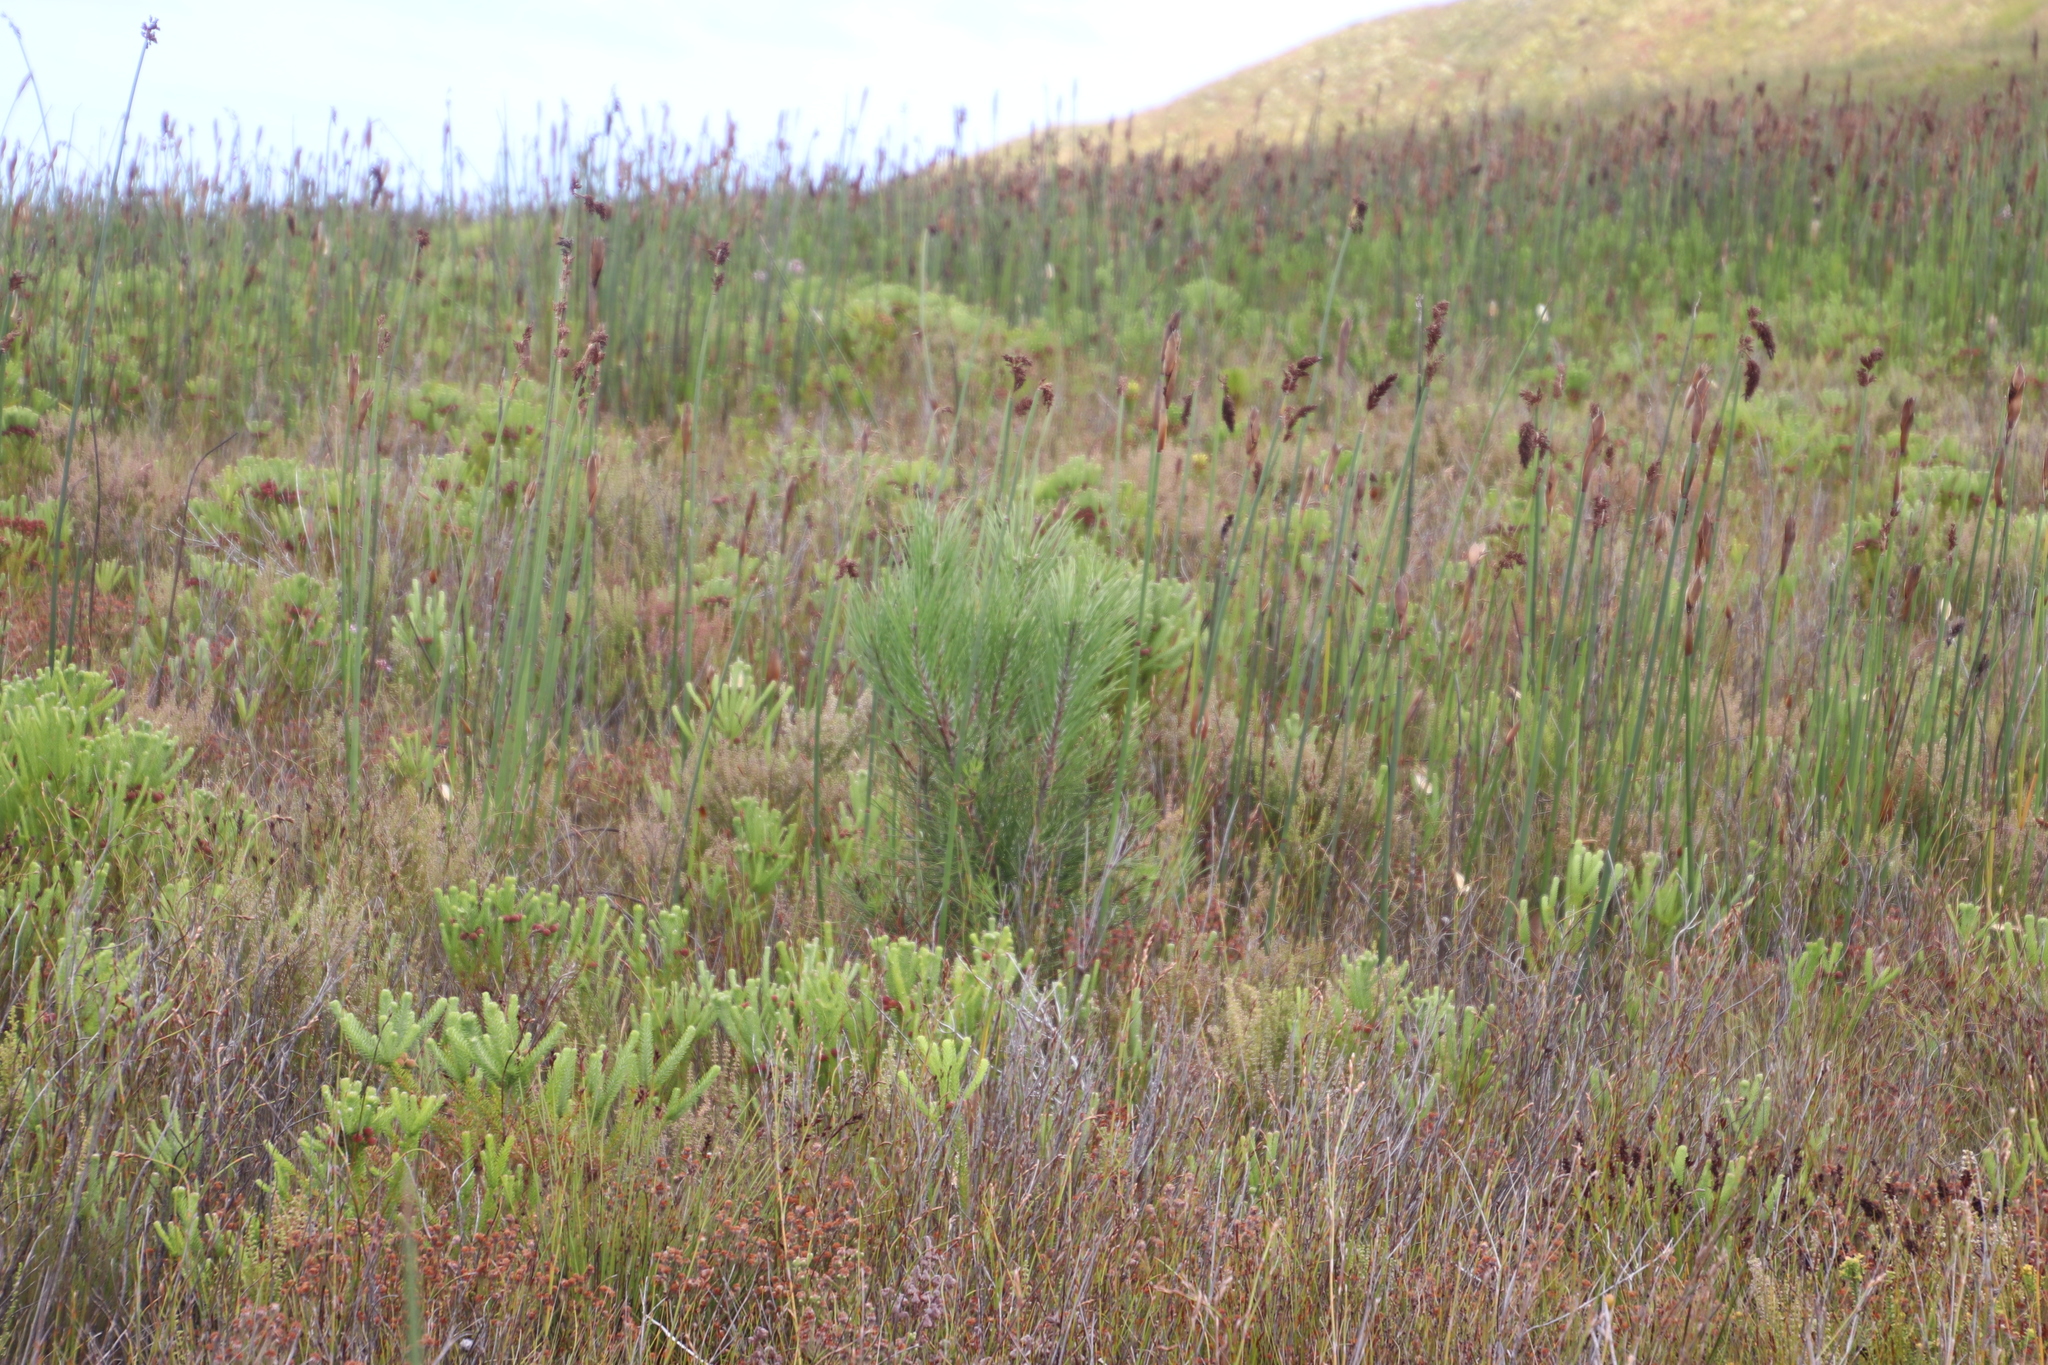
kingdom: Plantae
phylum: Tracheophyta
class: Pinopsida
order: Pinales
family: Pinaceae
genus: Pinus
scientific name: Pinus pinaster
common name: Maritime pine
